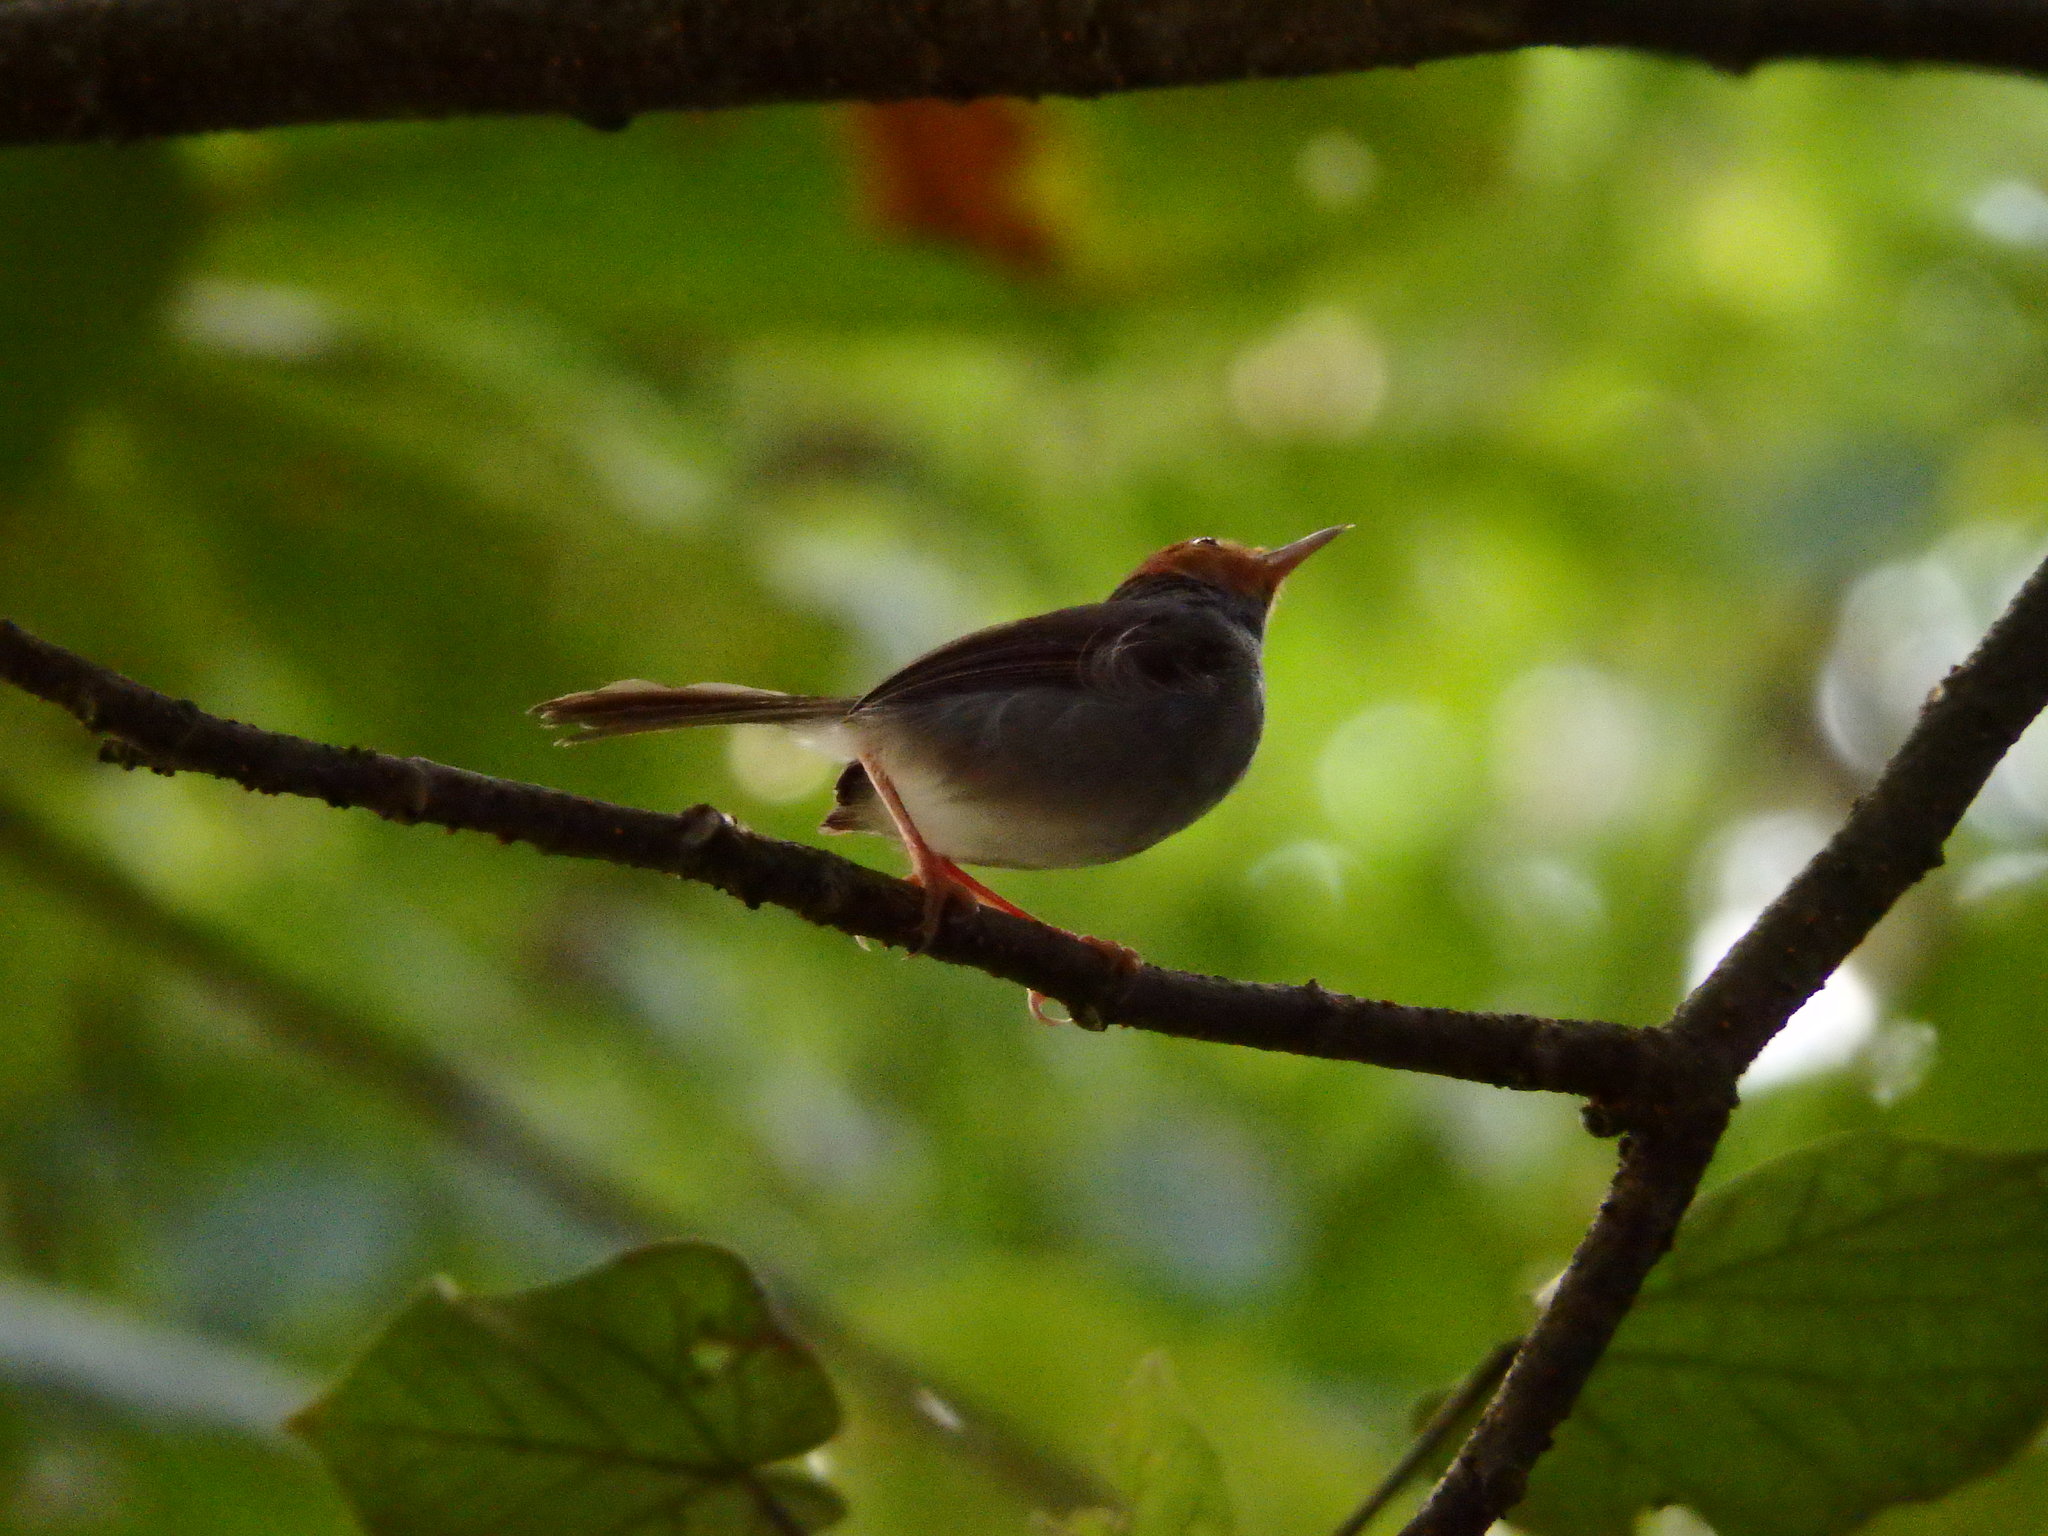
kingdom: Animalia
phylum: Chordata
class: Aves
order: Passeriformes
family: Cisticolidae
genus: Orthotomus
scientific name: Orthotomus ruficeps
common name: Ashy tailorbird
